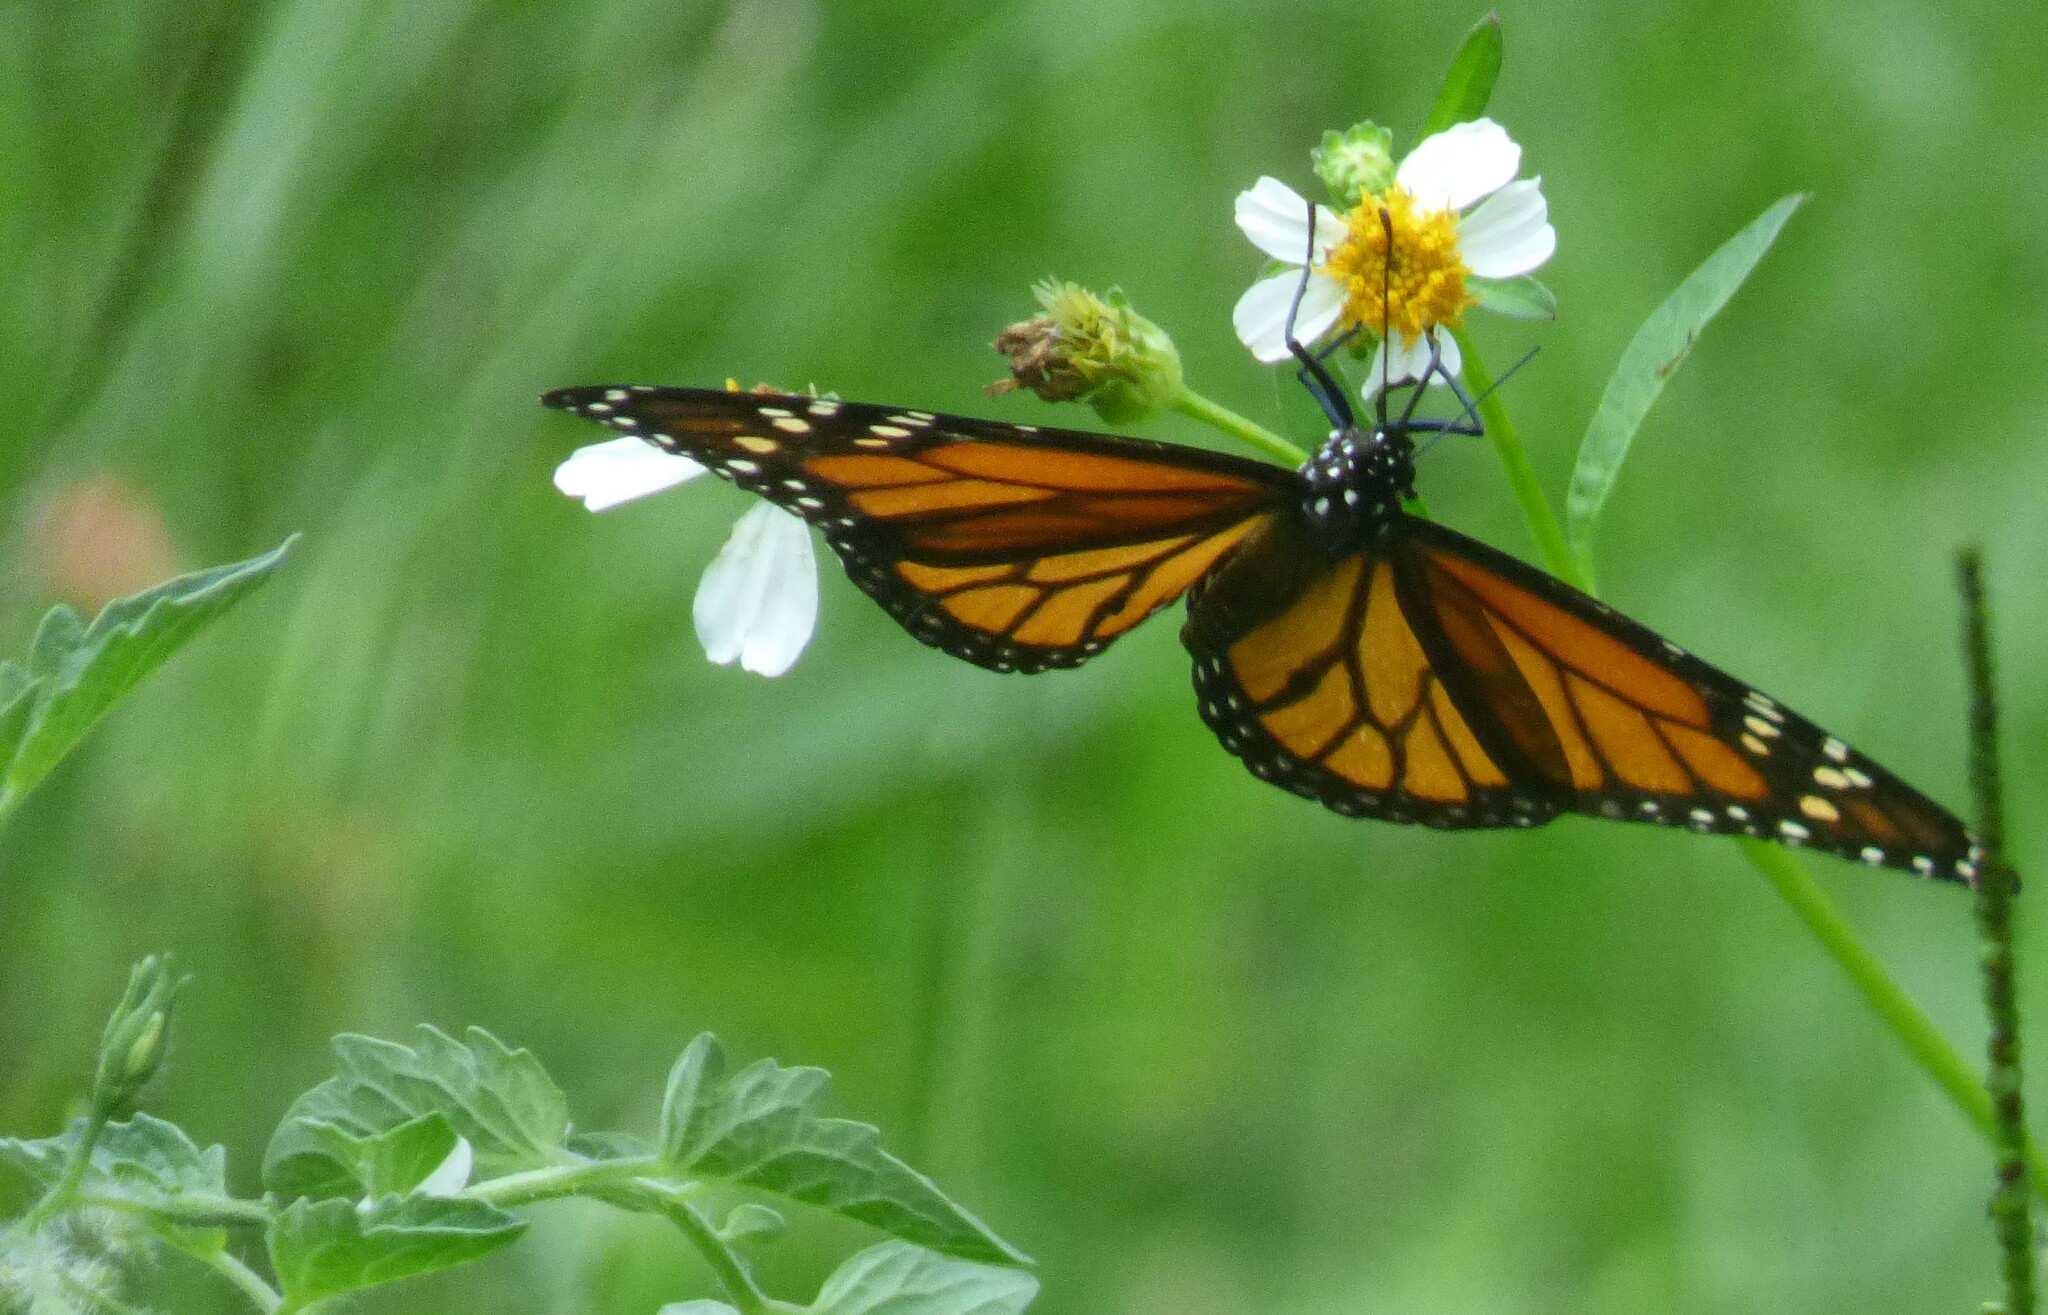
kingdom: Animalia
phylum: Arthropoda
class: Insecta
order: Lepidoptera
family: Nymphalidae
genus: Danaus
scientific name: Danaus plexippus
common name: Monarch
